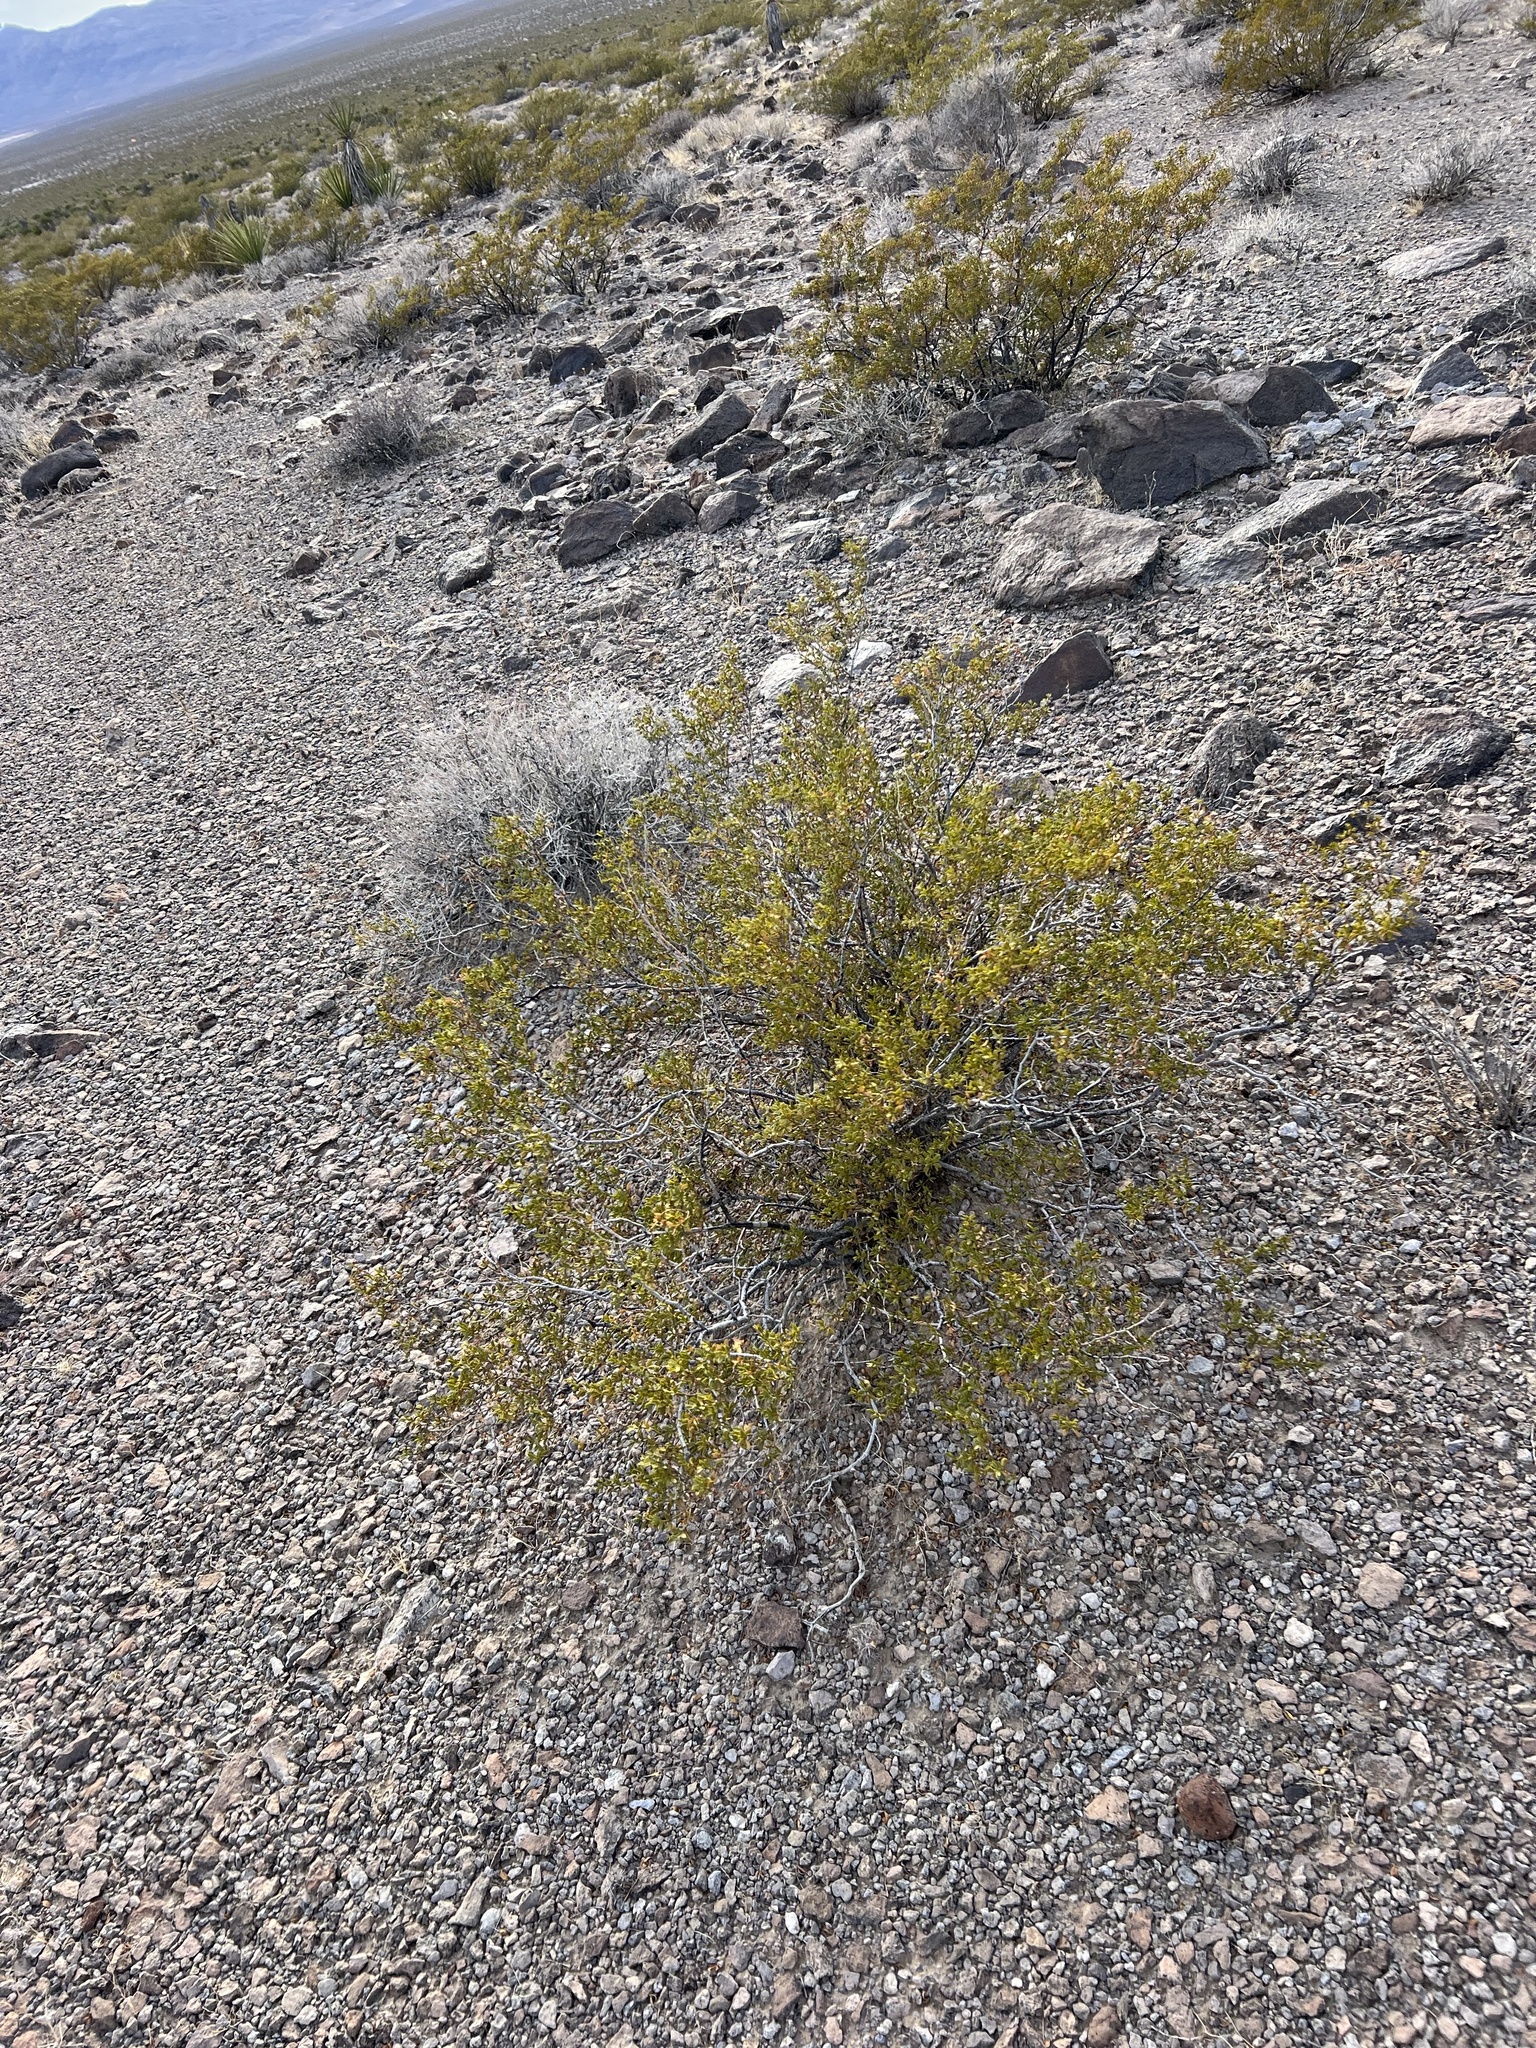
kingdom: Plantae
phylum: Tracheophyta
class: Magnoliopsida
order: Zygophyllales
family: Zygophyllaceae
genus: Larrea
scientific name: Larrea tridentata
